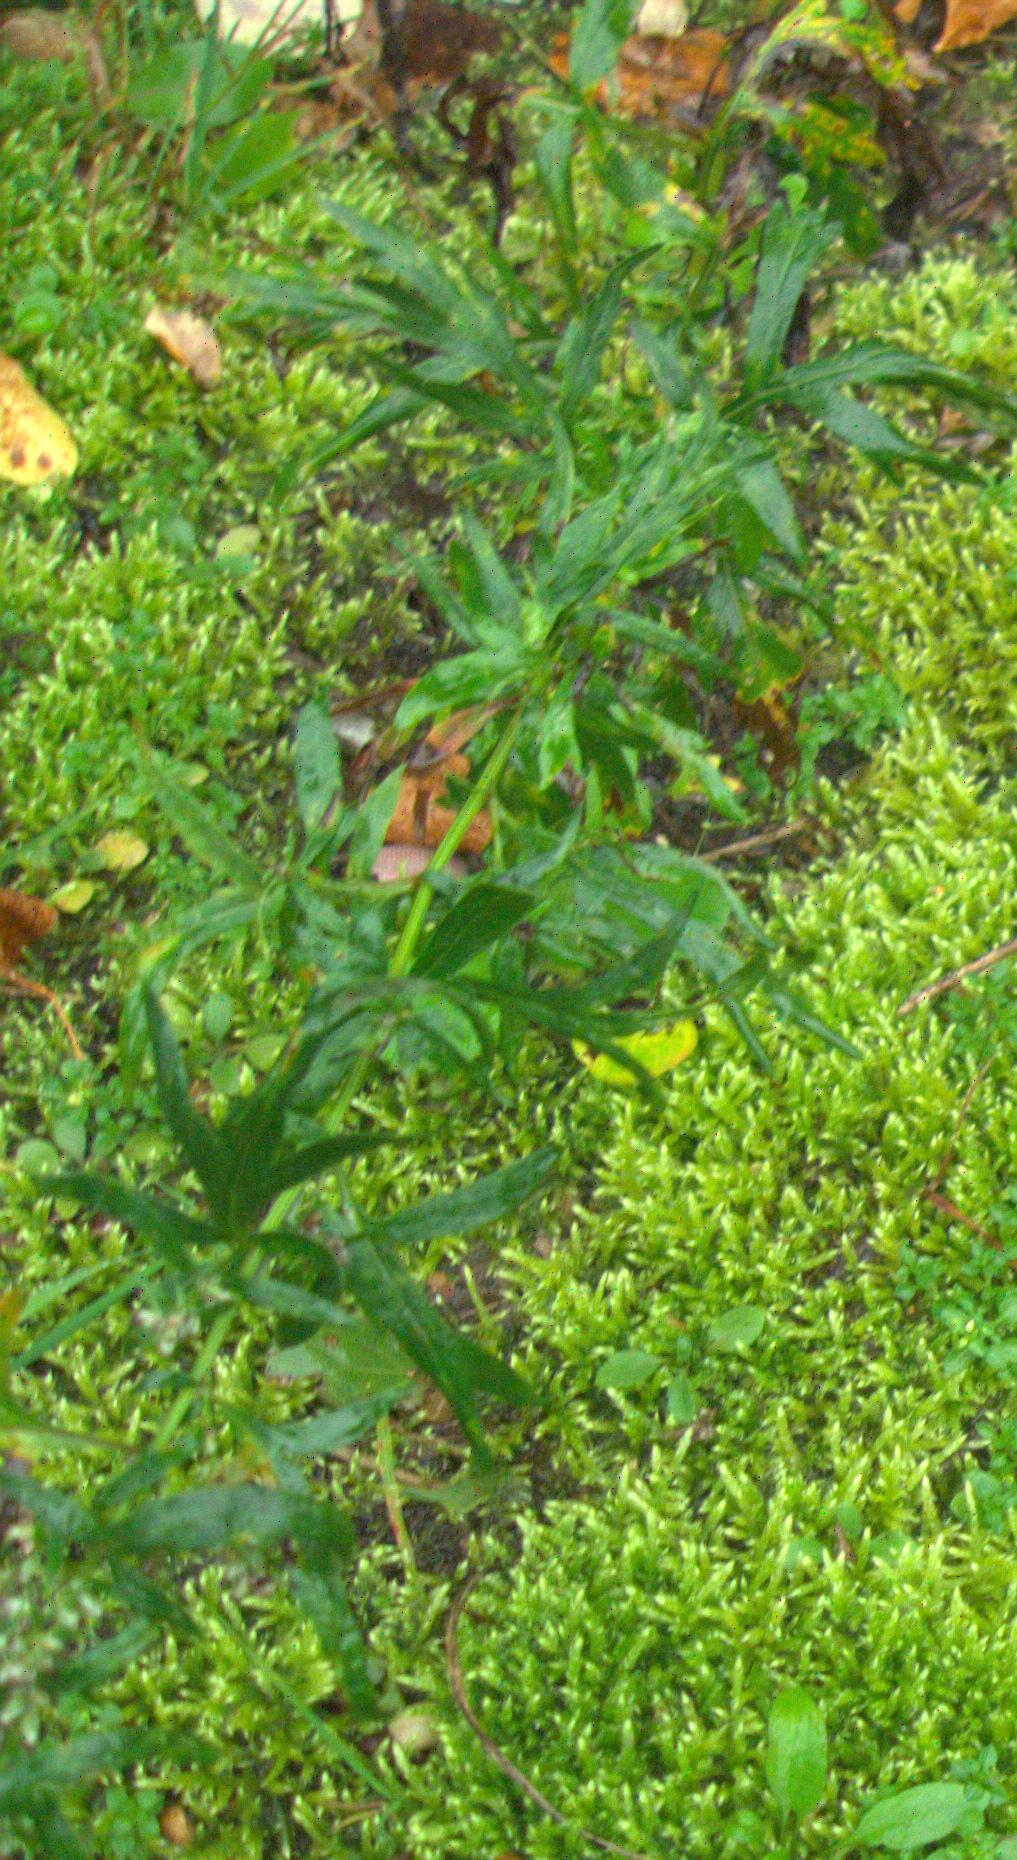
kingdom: Plantae
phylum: Tracheophyta
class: Magnoliopsida
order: Asterales
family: Asteraceae
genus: Artemisia
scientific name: Artemisia vulgaris
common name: Mugwort
